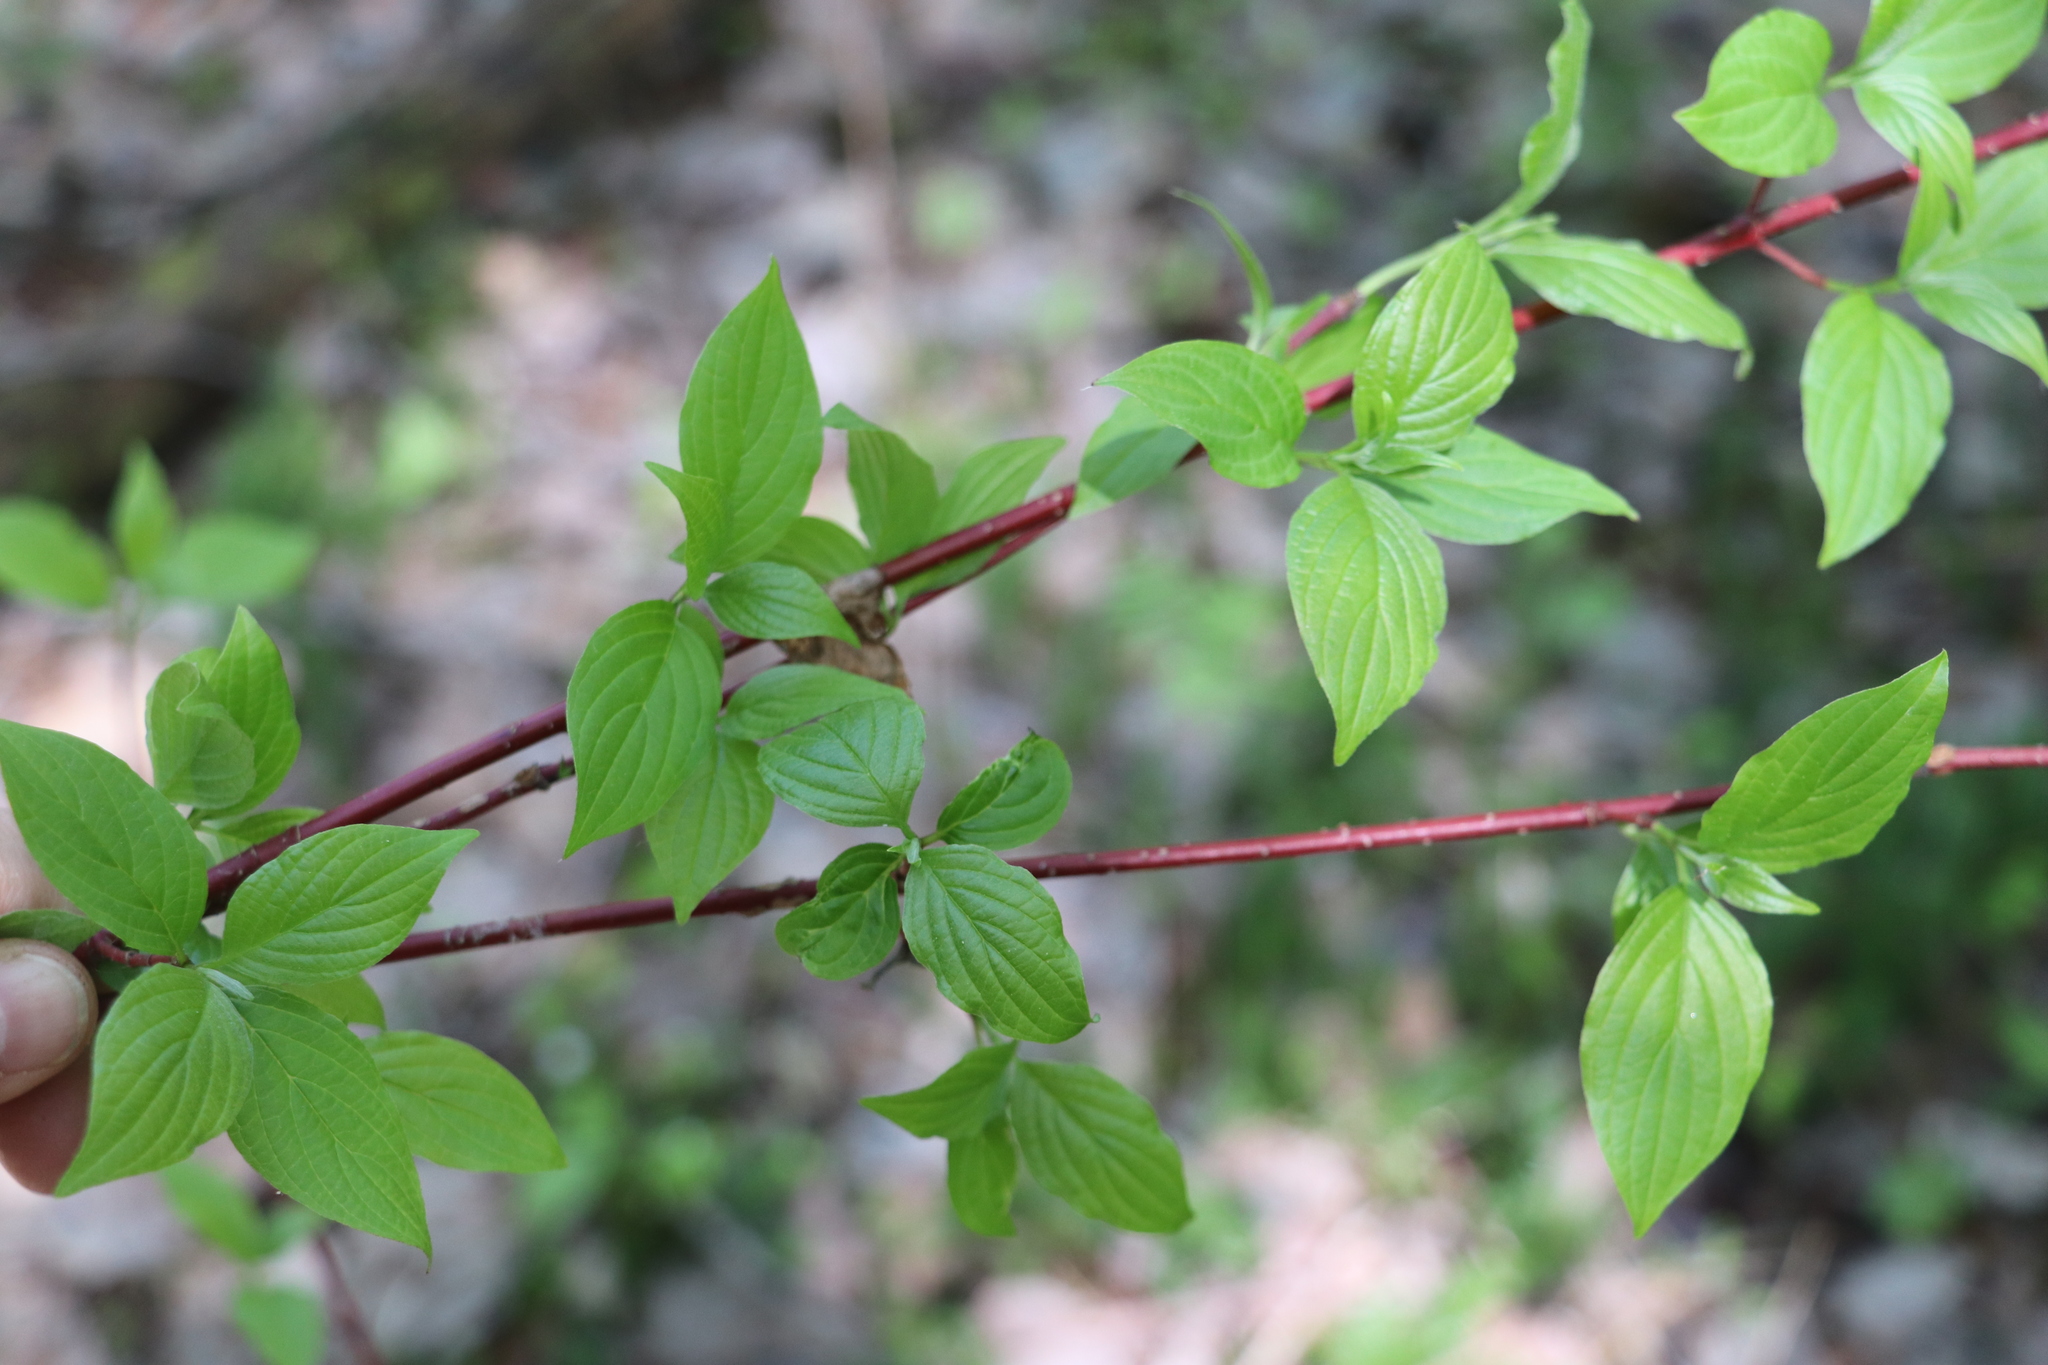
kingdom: Plantae
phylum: Tracheophyta
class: Magnoliopsida
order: Cornales
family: Cornaceae
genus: Cornus
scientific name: Cornus alba
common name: White dogwood
